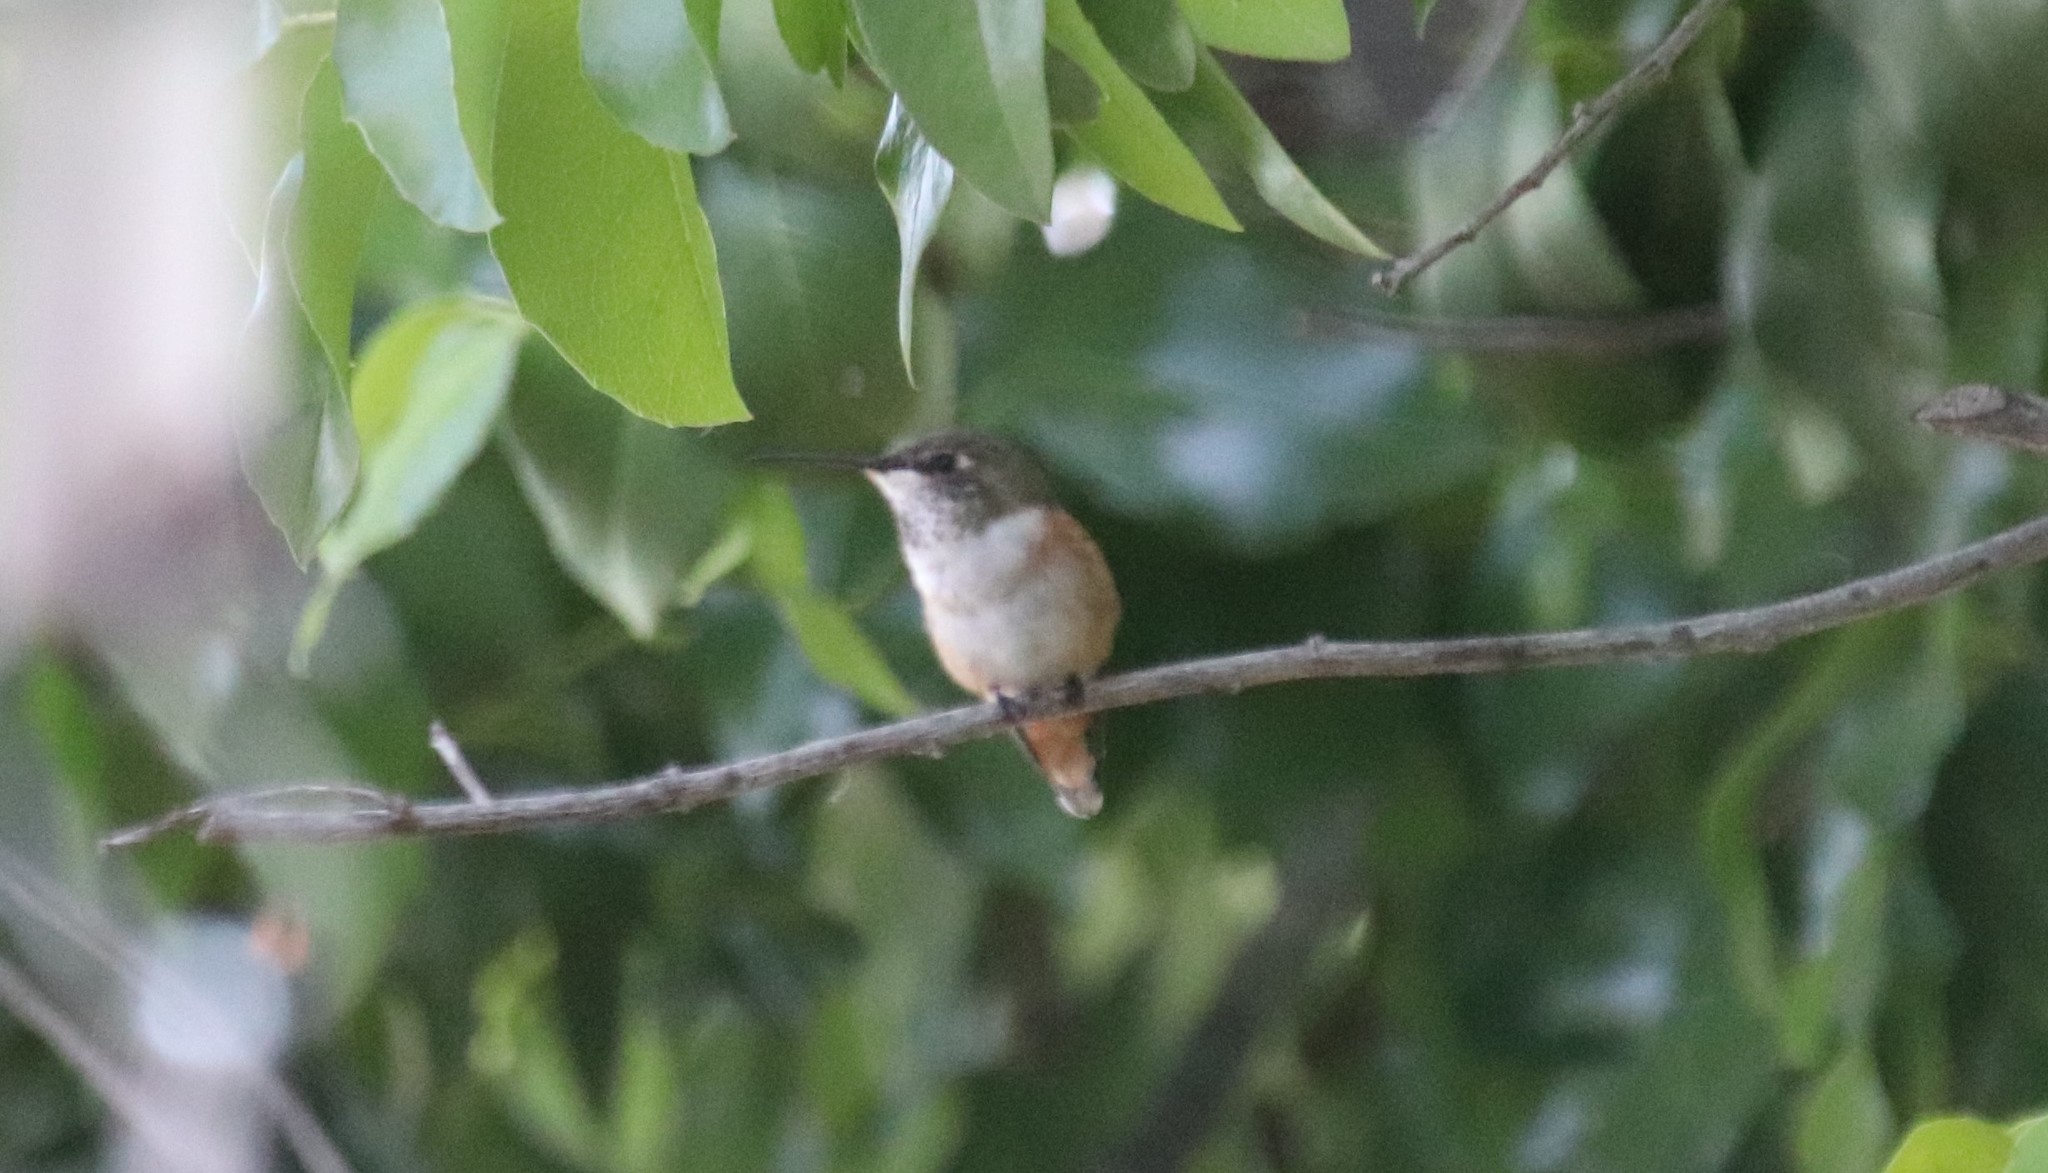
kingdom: Animalia
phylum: Chordata
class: Aves
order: Apodiformes
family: Trochilidae
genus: Selasphorus
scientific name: Selasphorus
